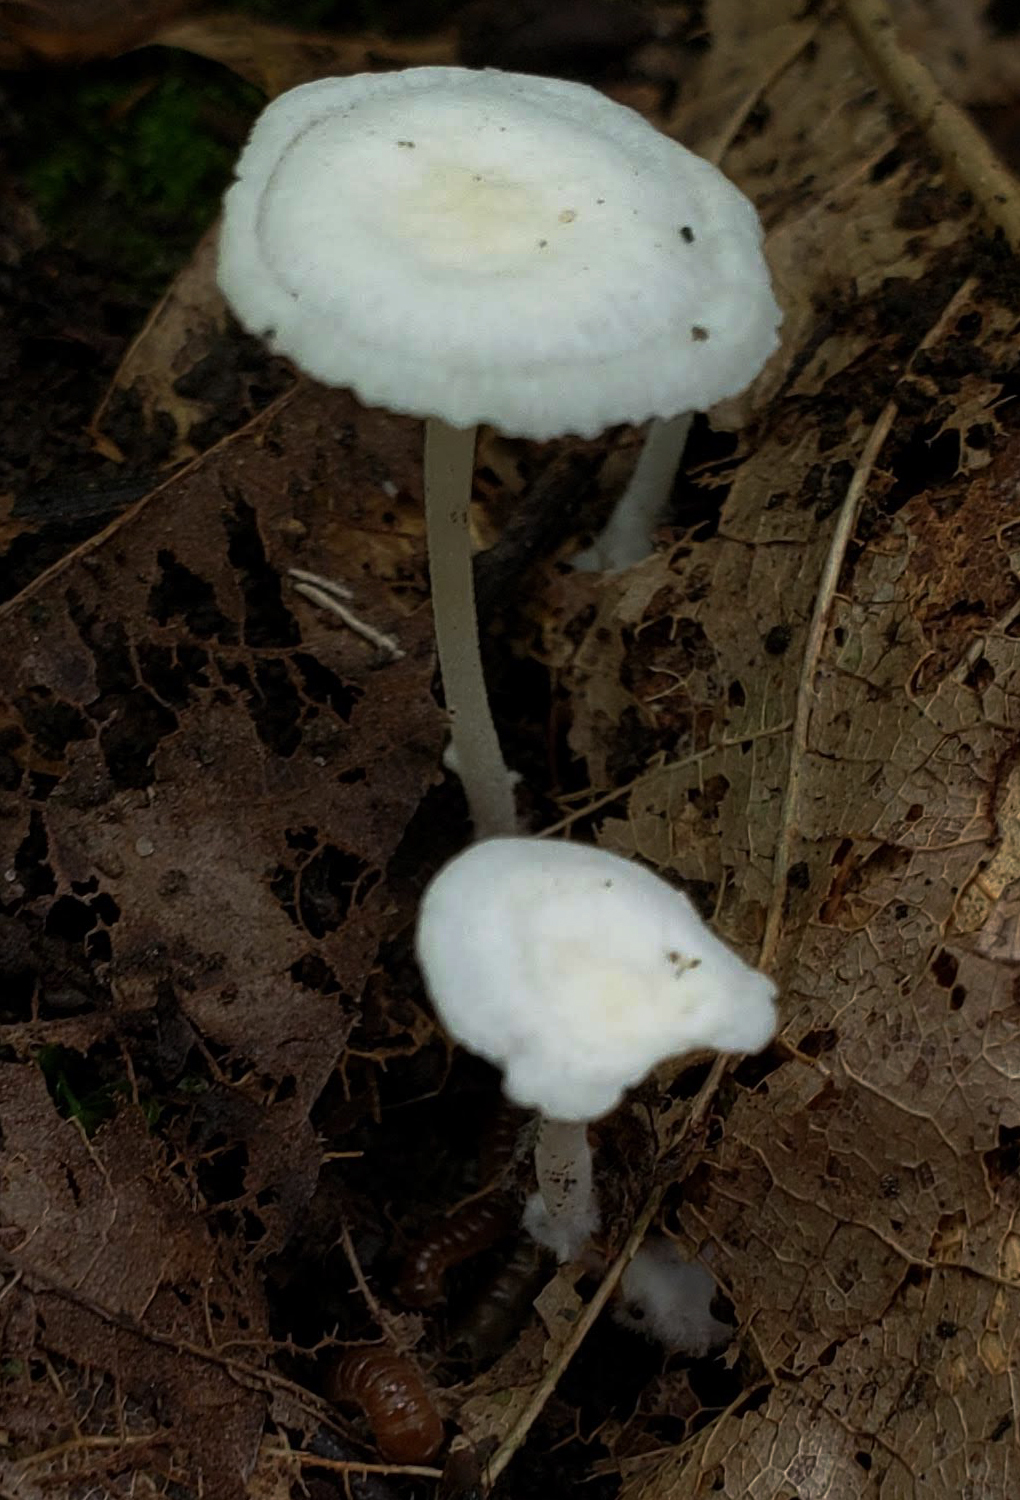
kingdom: Fungi
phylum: Basidiomycota
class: Agaricomycetes
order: Agaricales
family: Mycenaceae
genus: Resinomycena
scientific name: Resinomycena rhododendri
